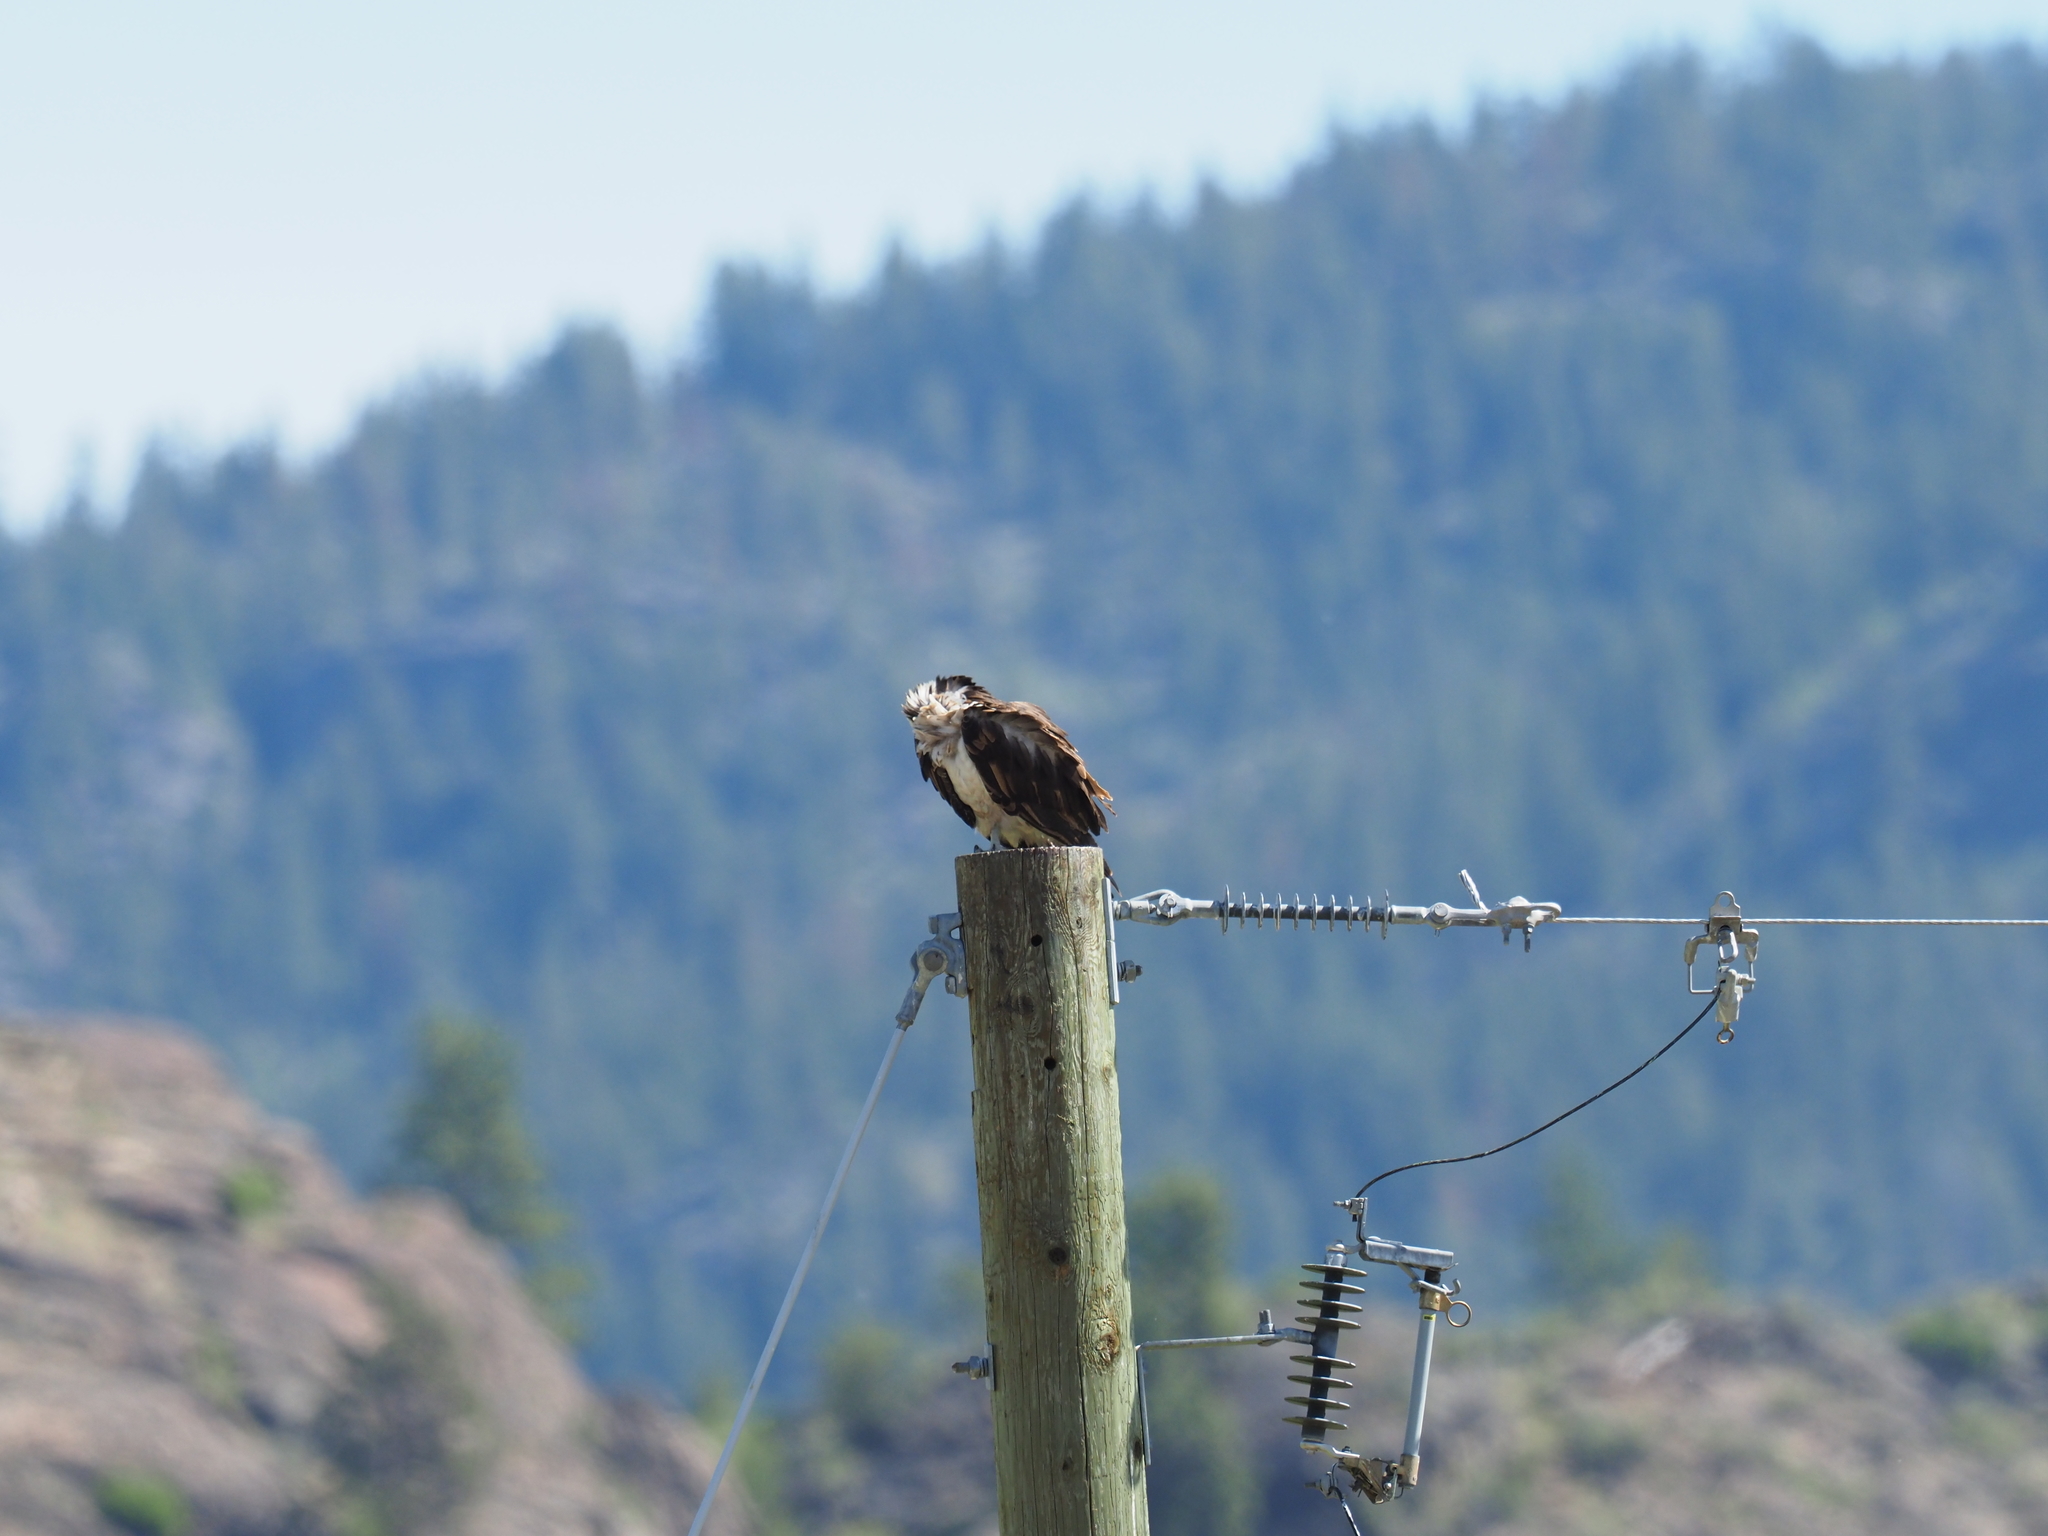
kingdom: Animalia
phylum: Chordata
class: Aves
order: Accipitriformes
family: Pandionidae
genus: Pandion
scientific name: Pandion haliaetus
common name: Osprey
